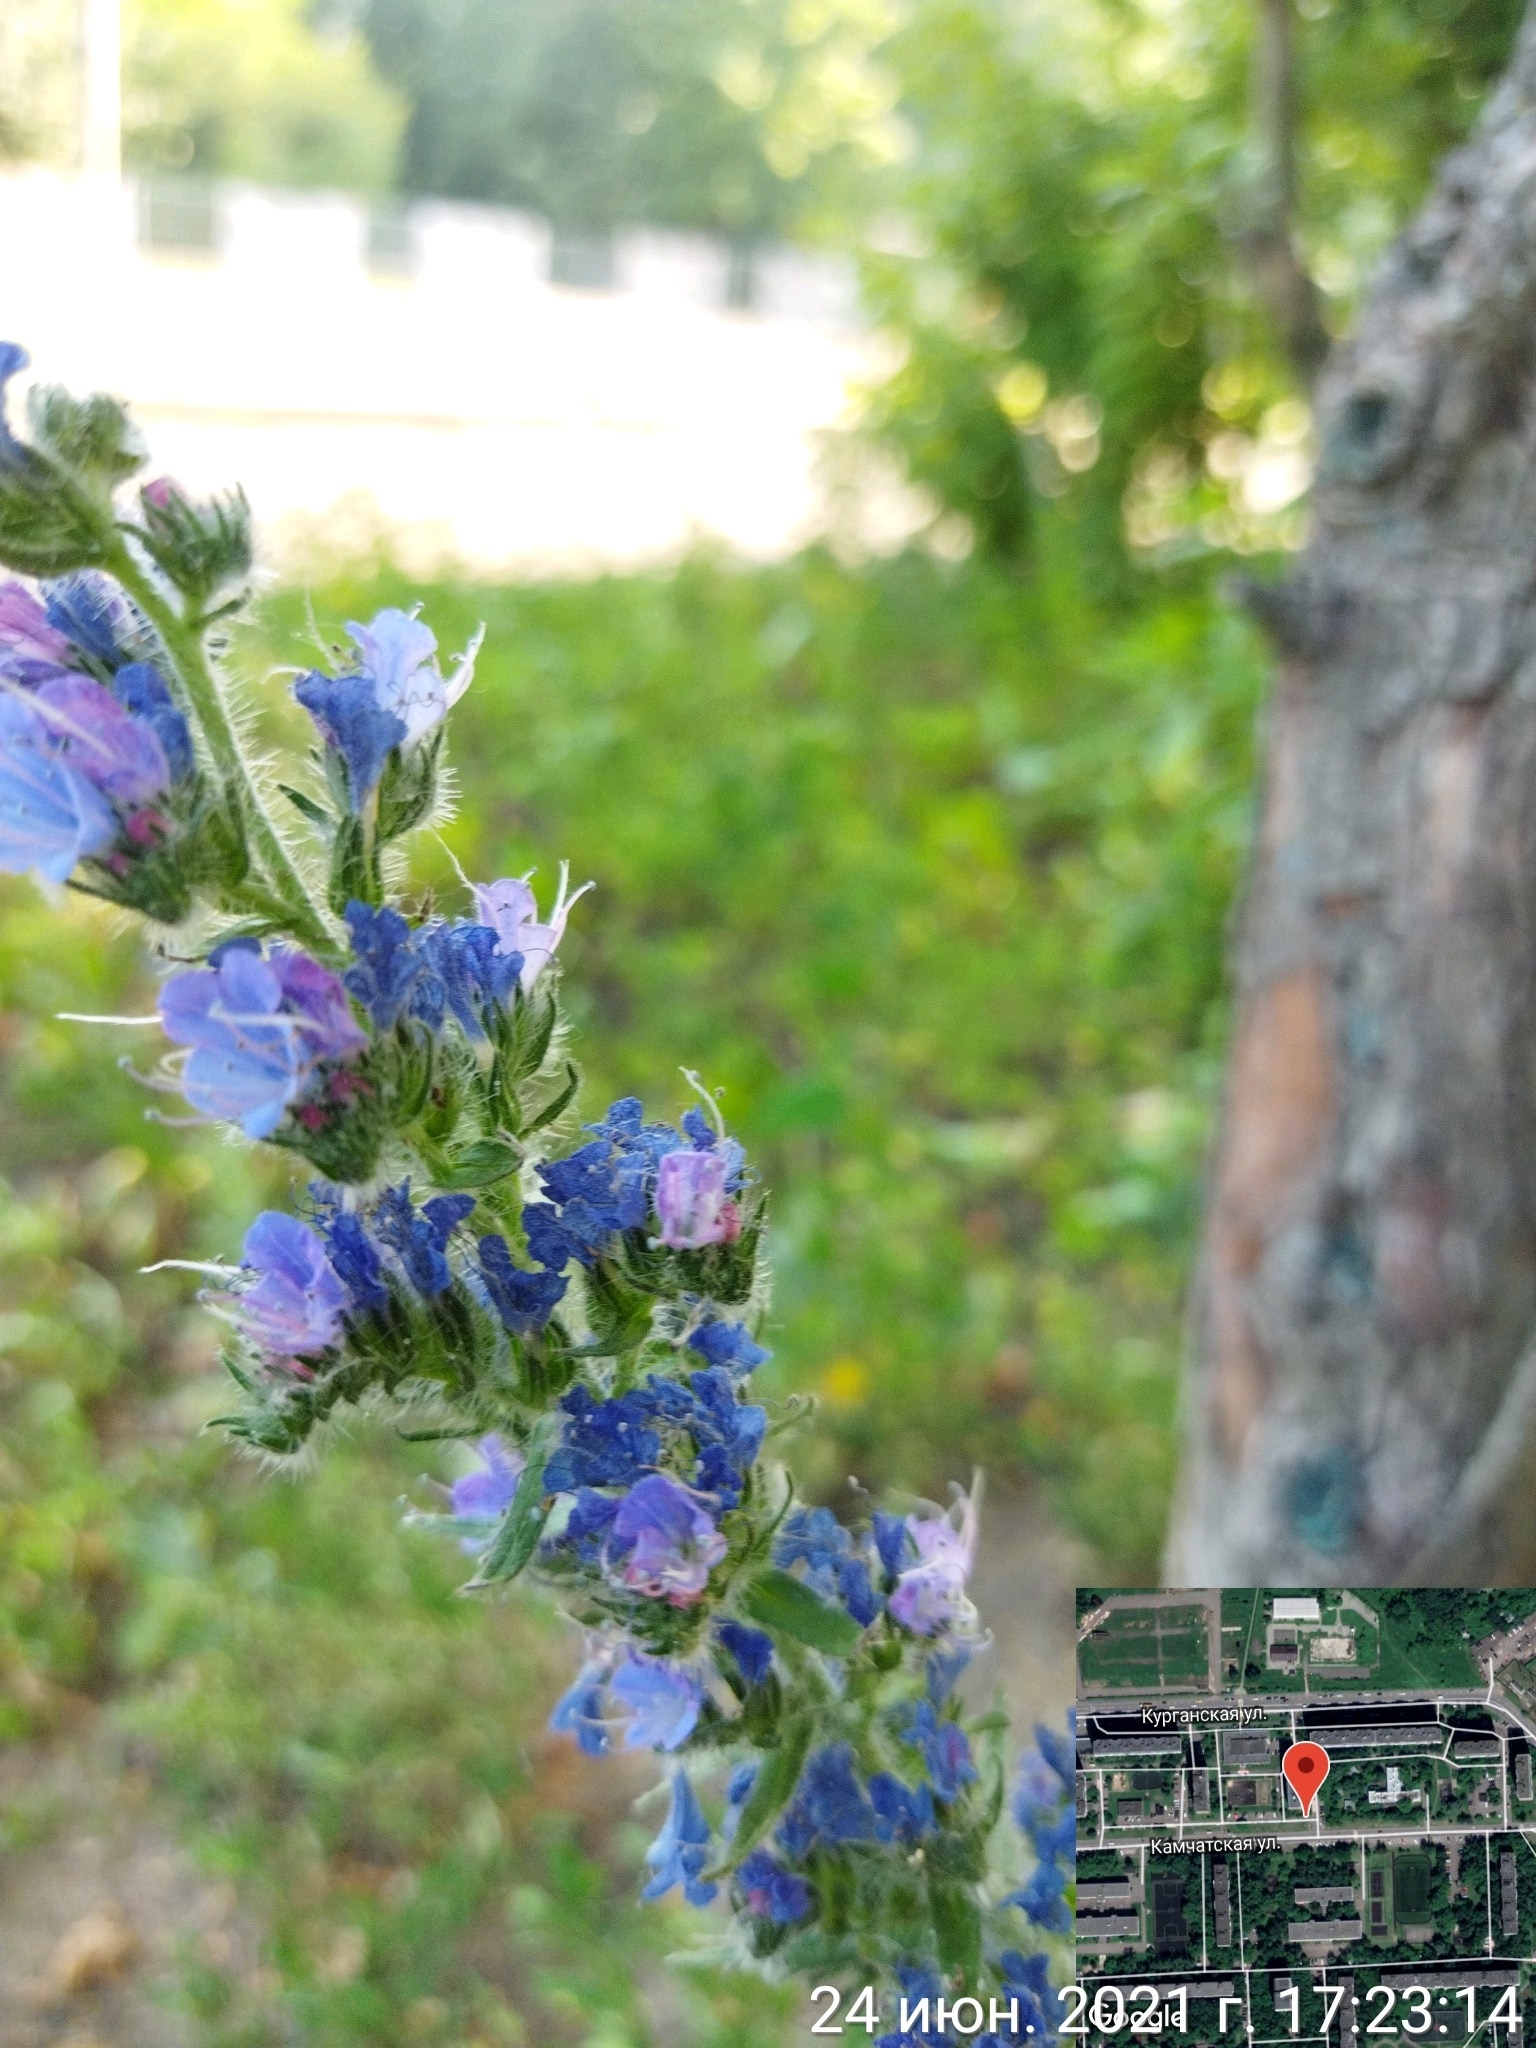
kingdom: Plantae
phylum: Tracheophyta
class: Magnoliopsida
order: Boraginales
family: Boraginaceae
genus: Echium
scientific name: Echium vulgare
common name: Common viper's bugloss
